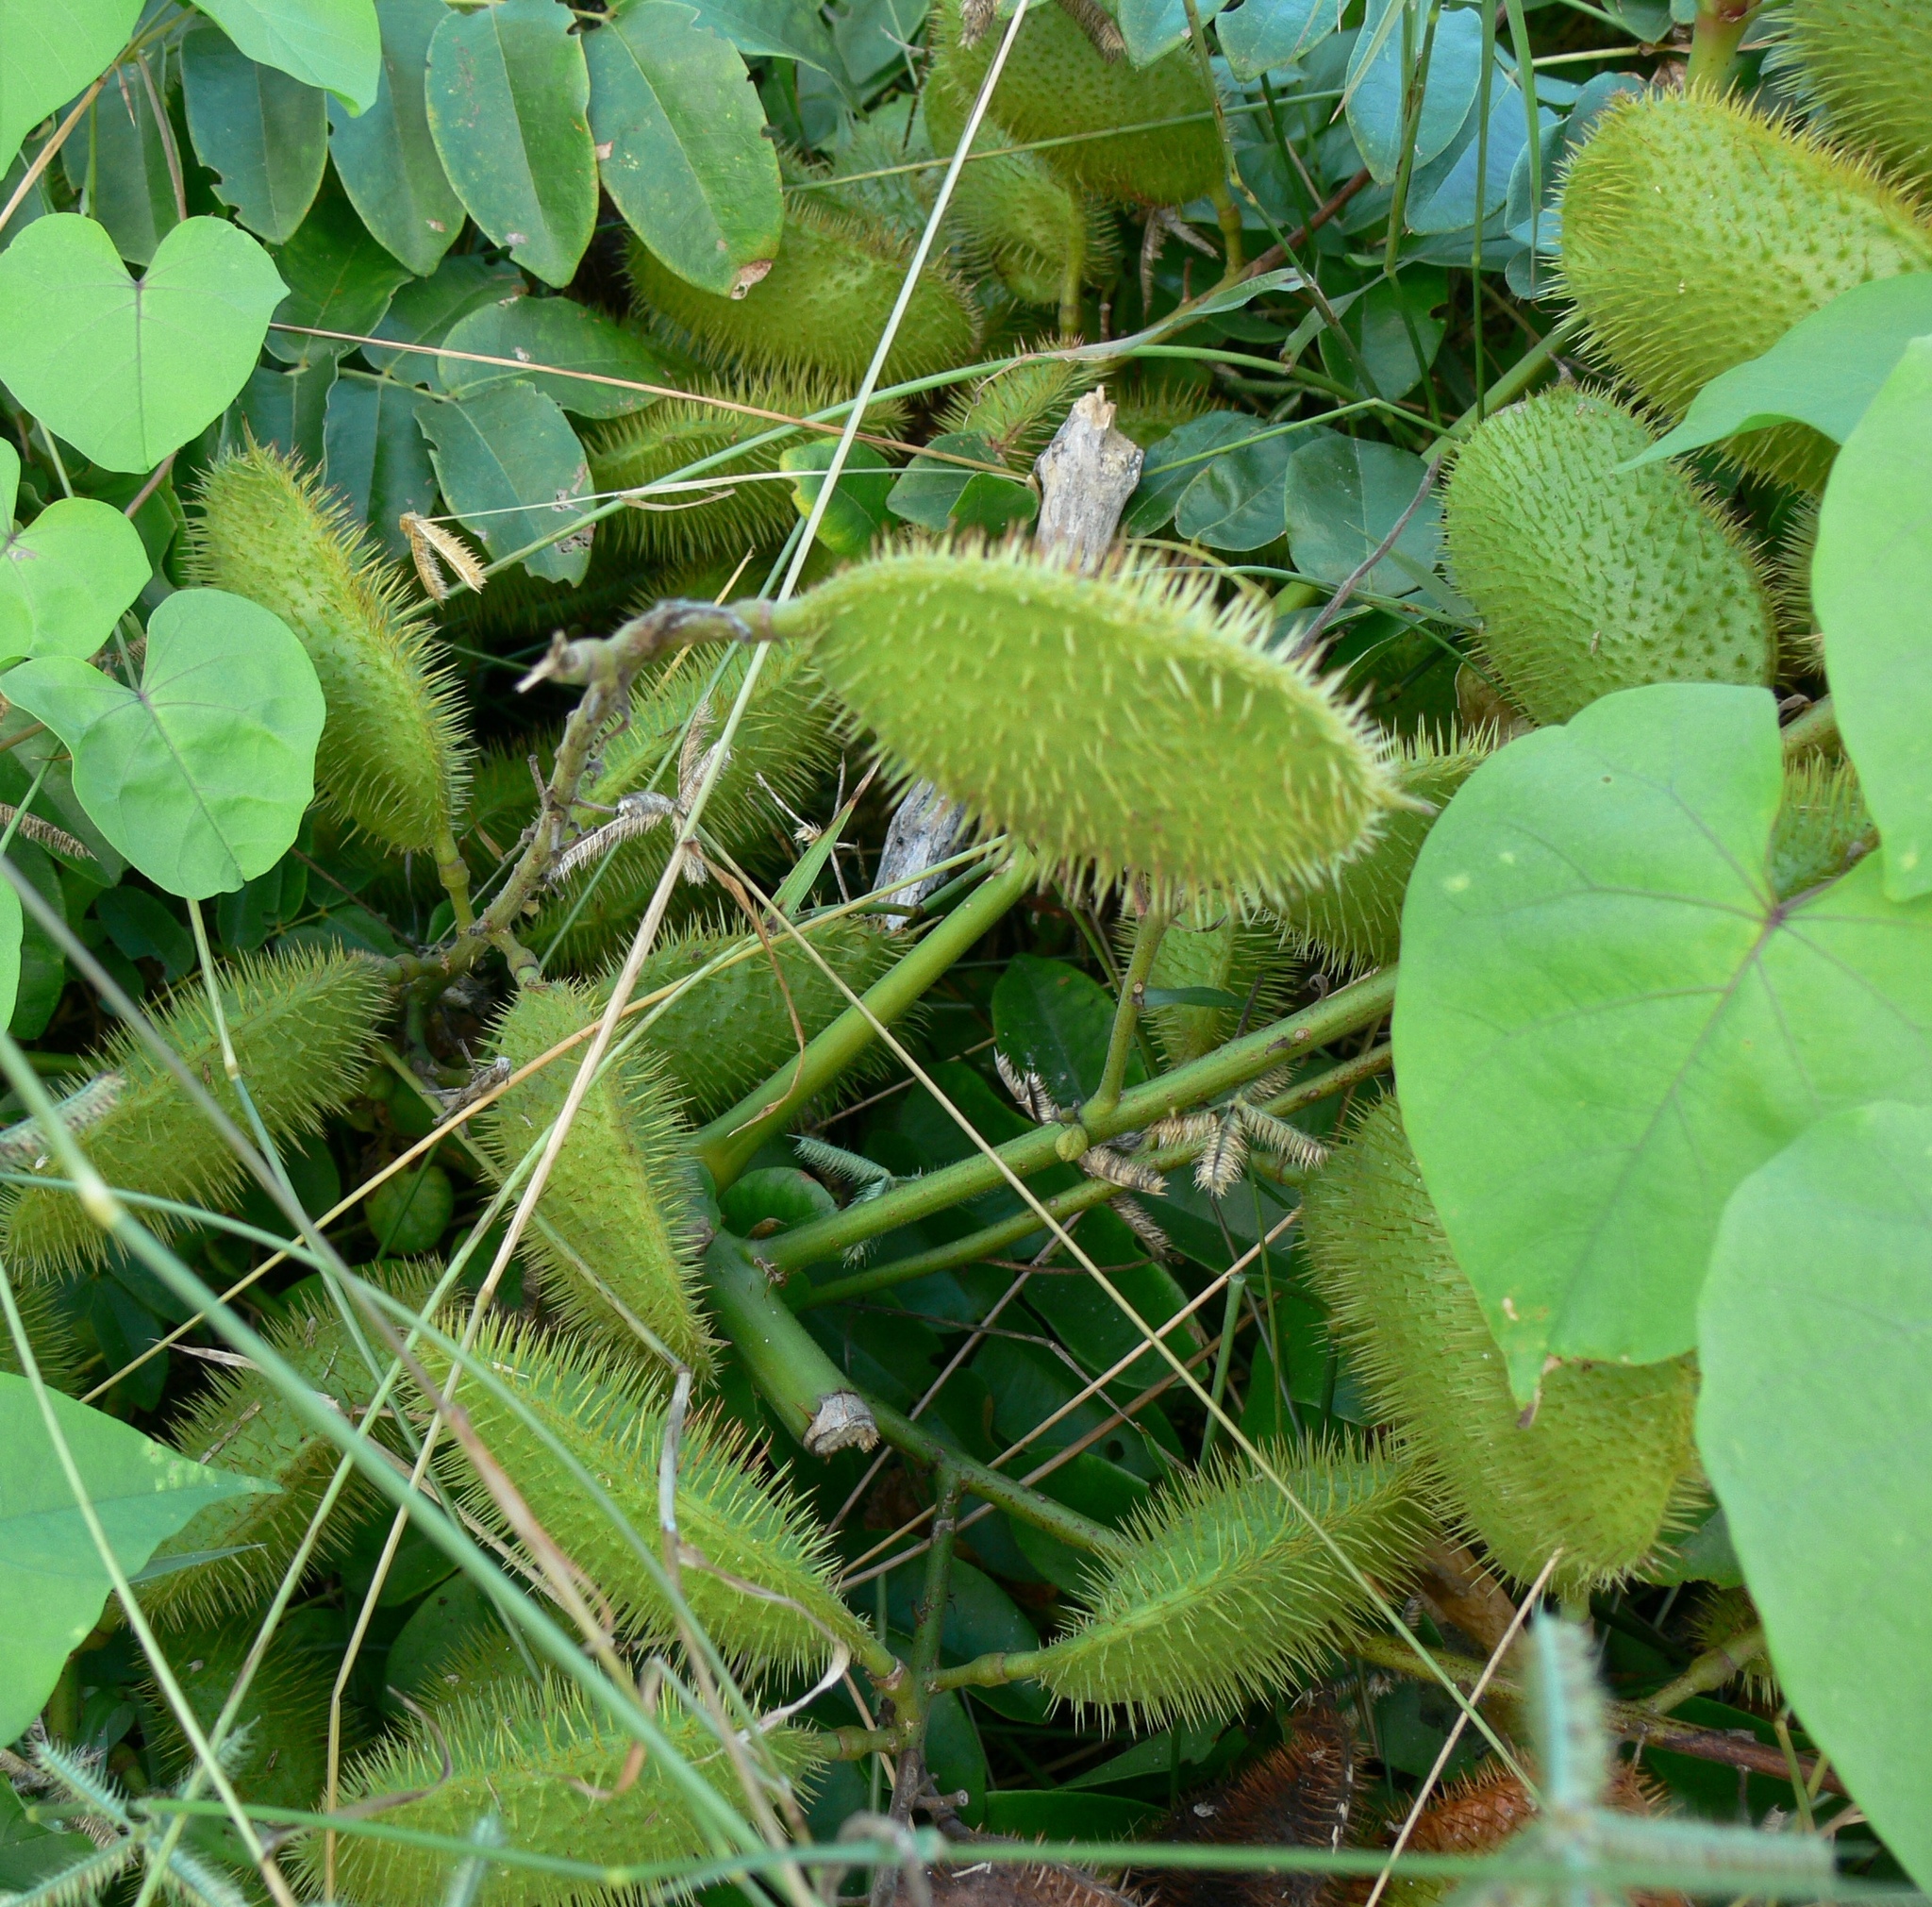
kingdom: Plantae
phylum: Tracheophyta
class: Magnoliopsida
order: Fabales
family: Fabaceae
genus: Guilandina
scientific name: Guilandina bonduc
